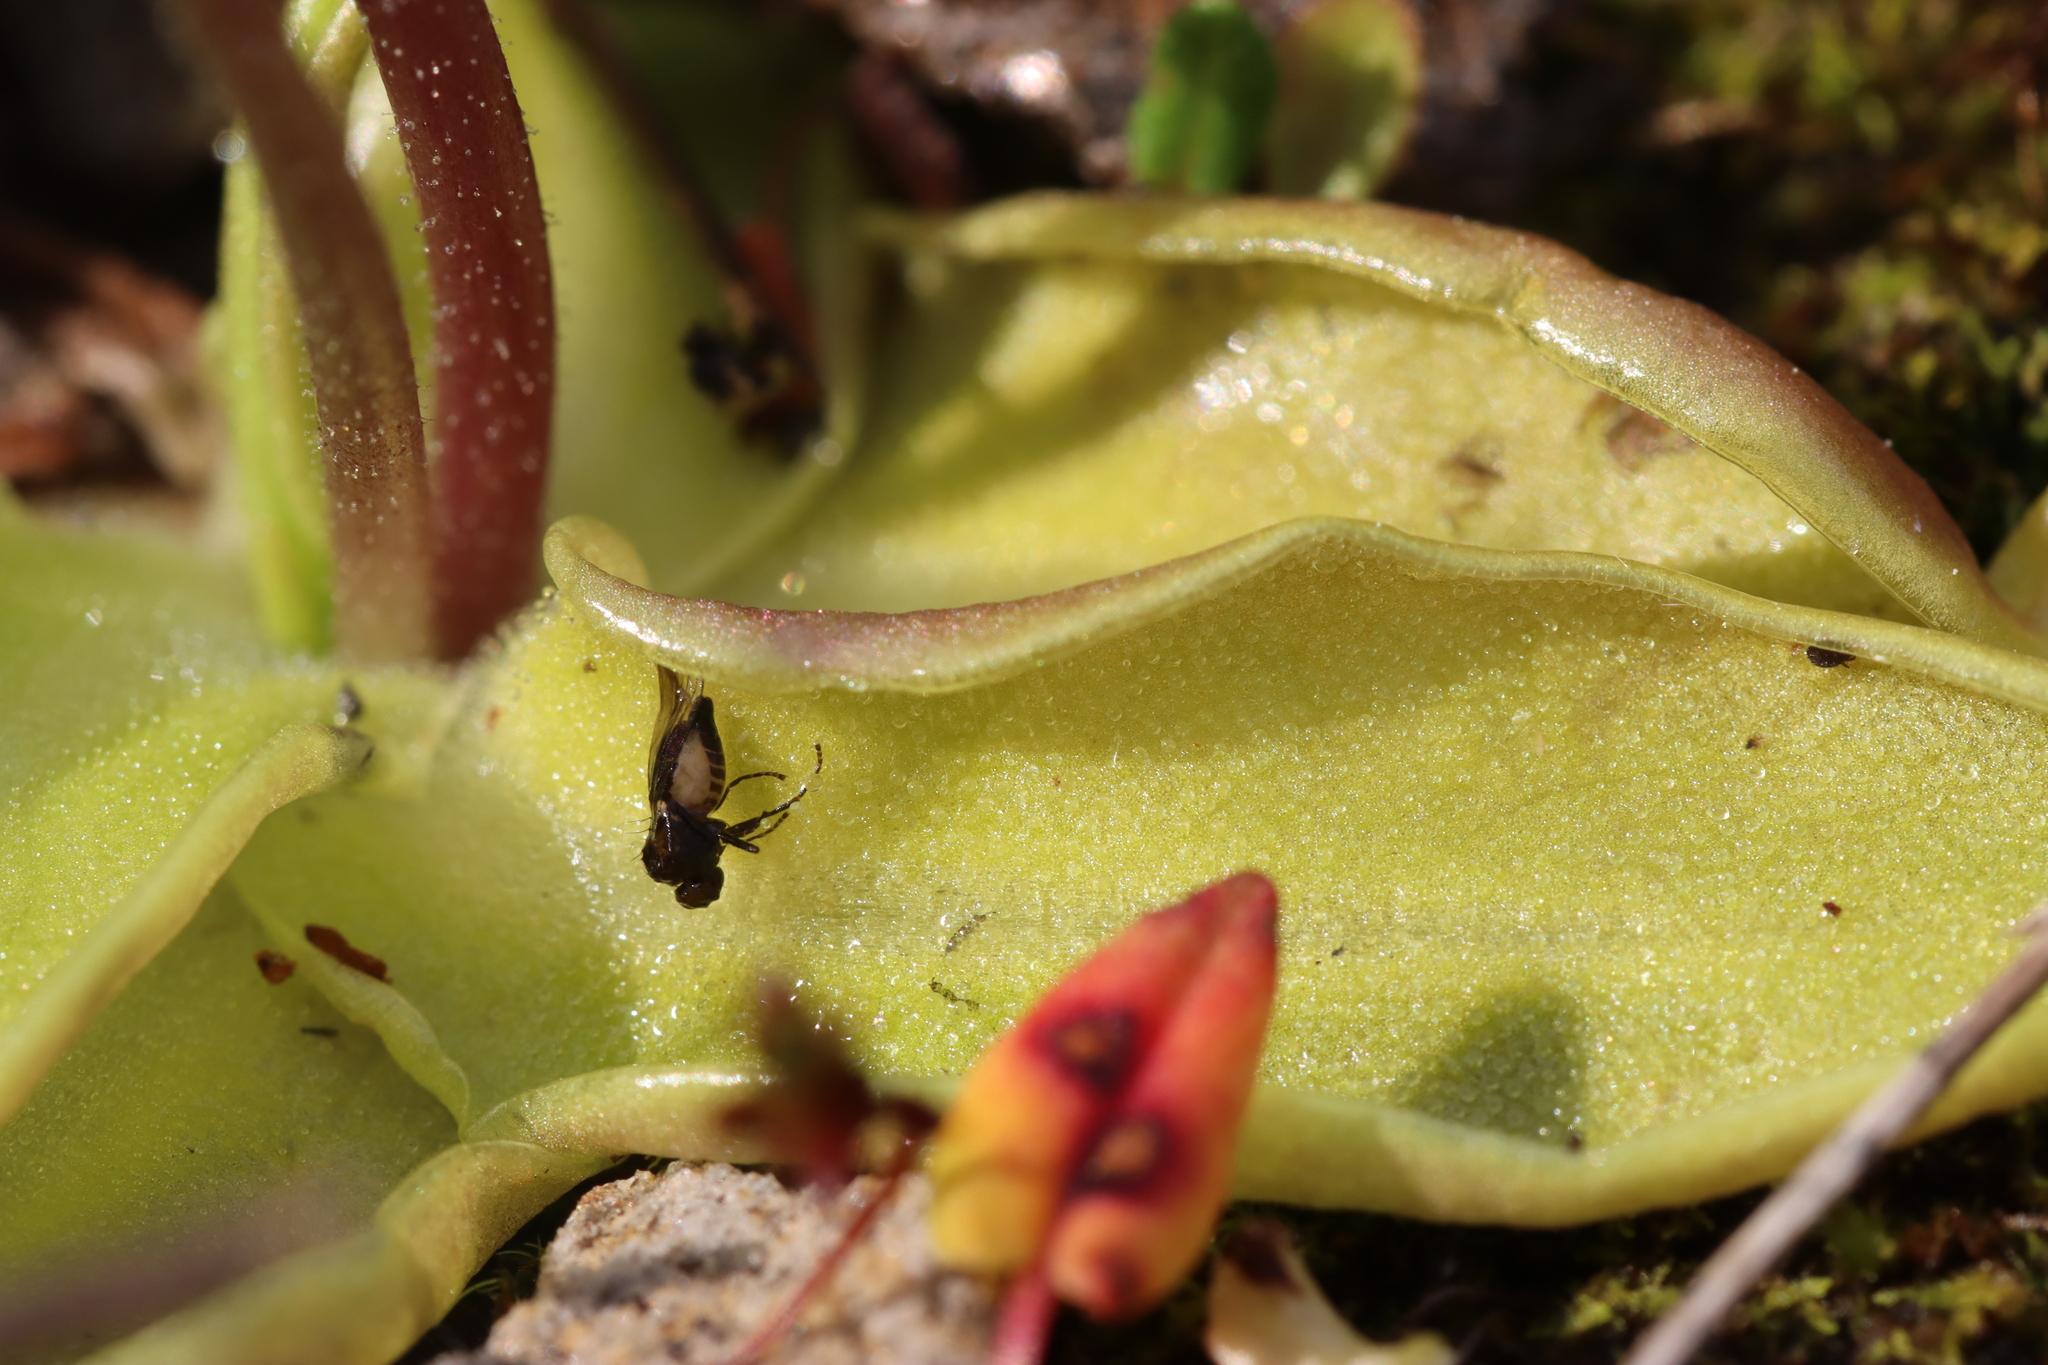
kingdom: Plantae
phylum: Tracheophyta
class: Magnoliopsida
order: Lamiales
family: Lentibulariaceae
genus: Pinguicula
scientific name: Pinguicula vulgaris
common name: Common butterwort
